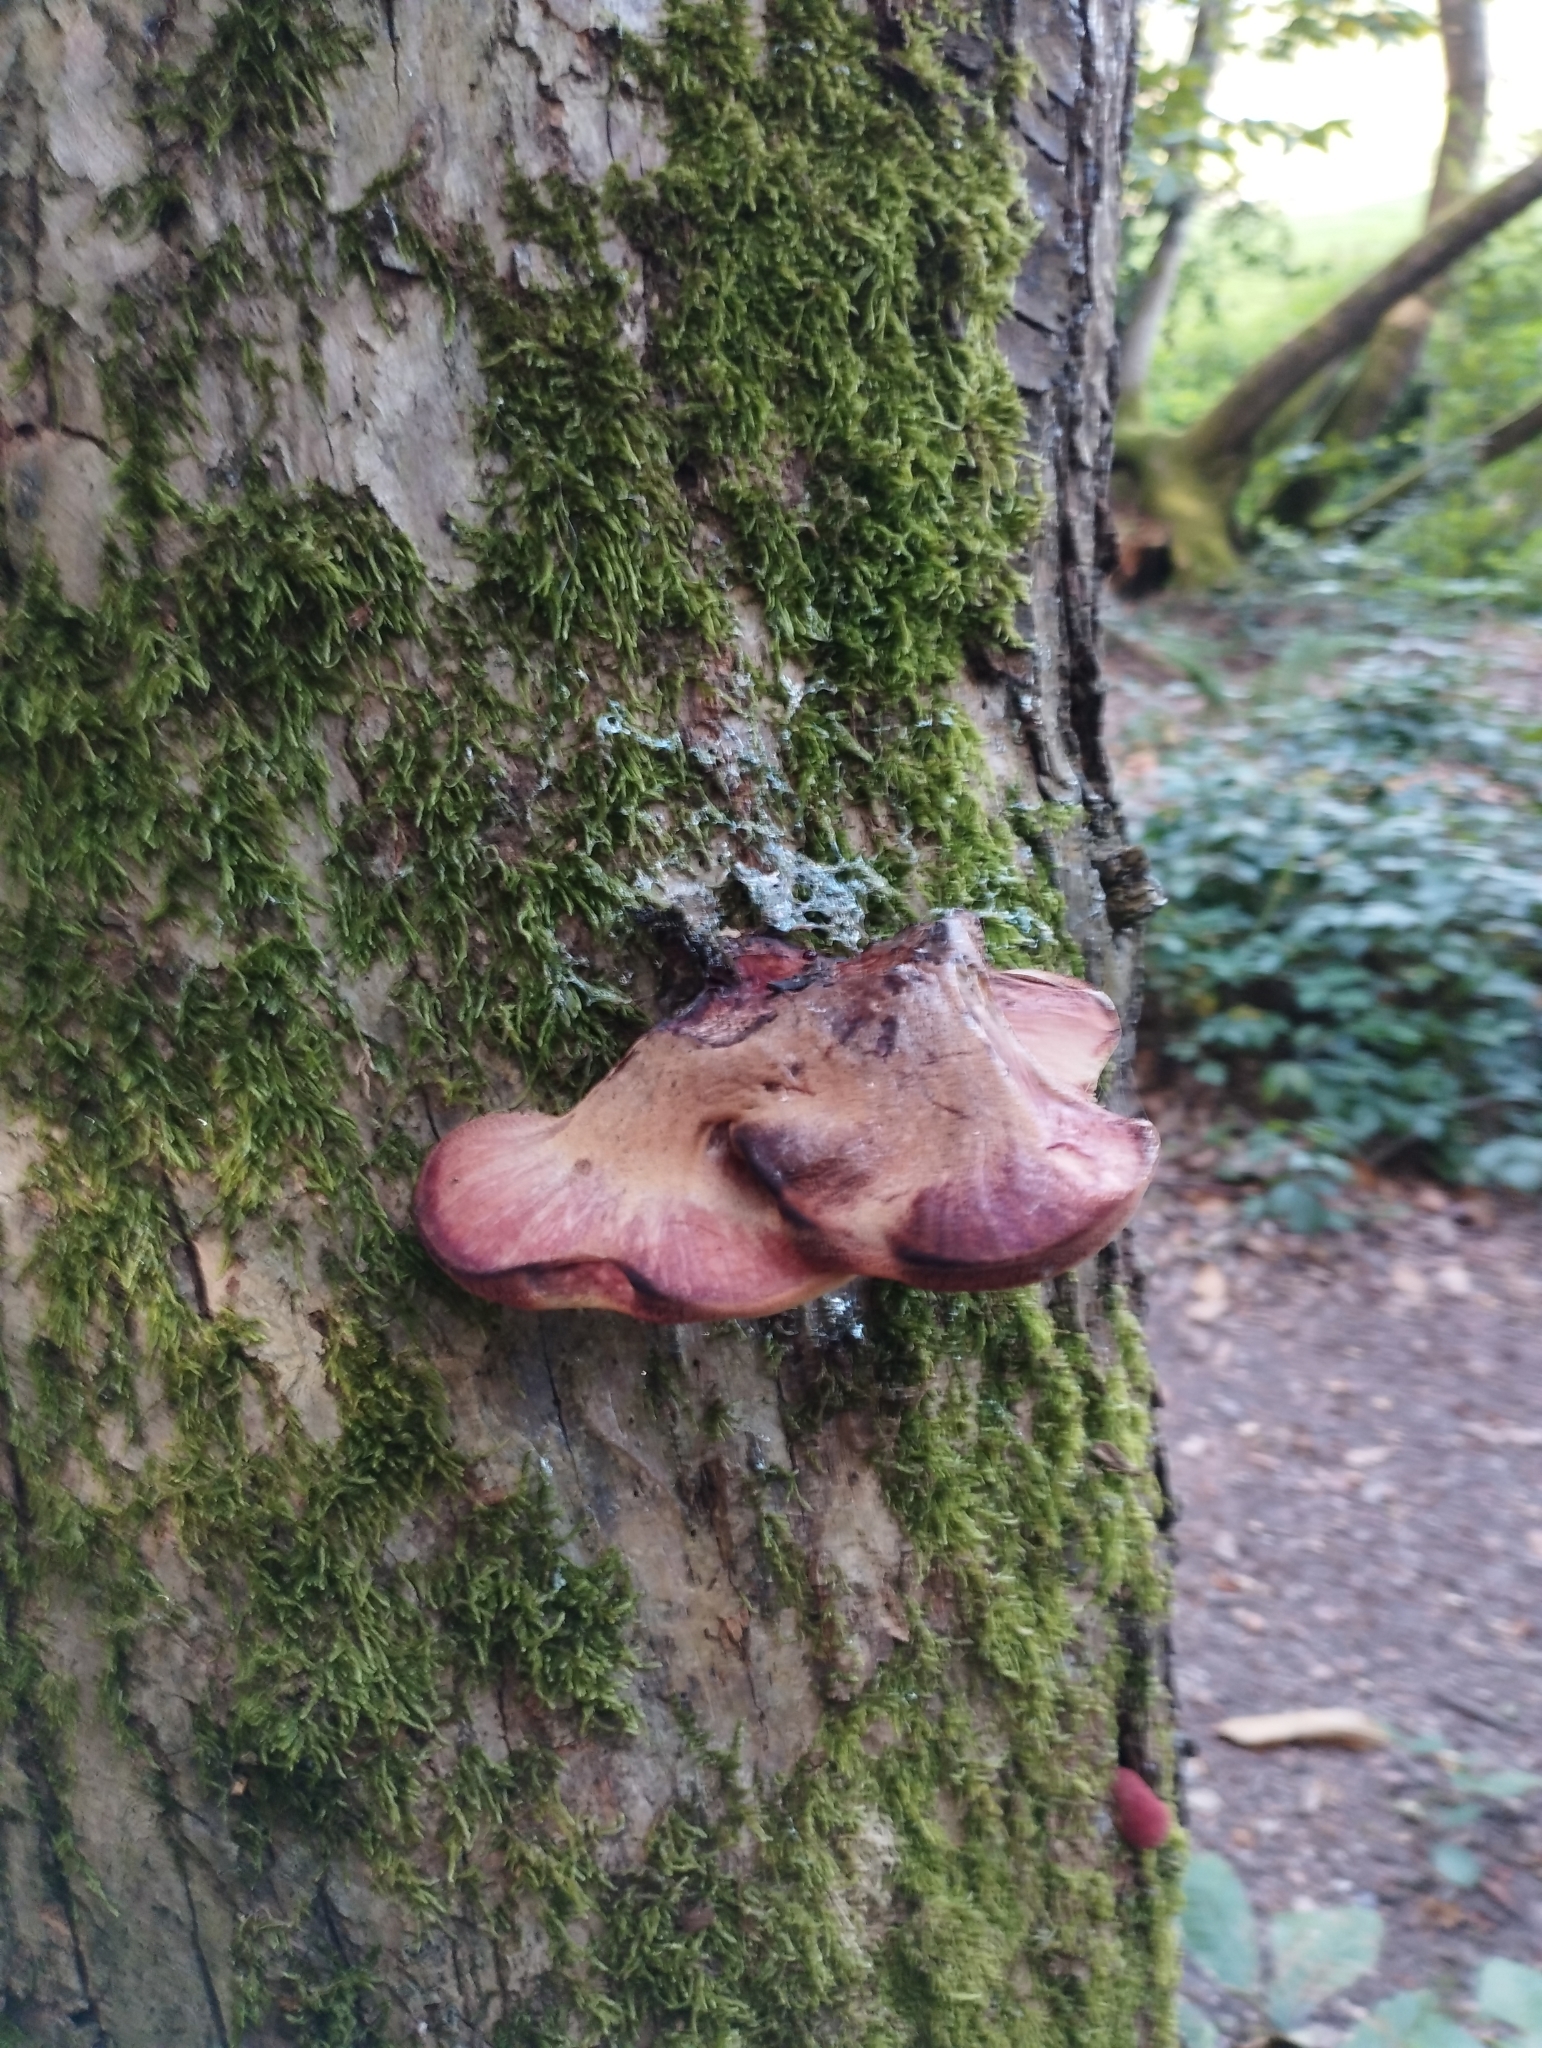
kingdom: Fungi
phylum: Basidiomycota
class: Agaricomycetes
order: Agaricales
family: Fistulinaceae
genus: Fistulina
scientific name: Fistulina hepatica
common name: Beef-steak fungus
